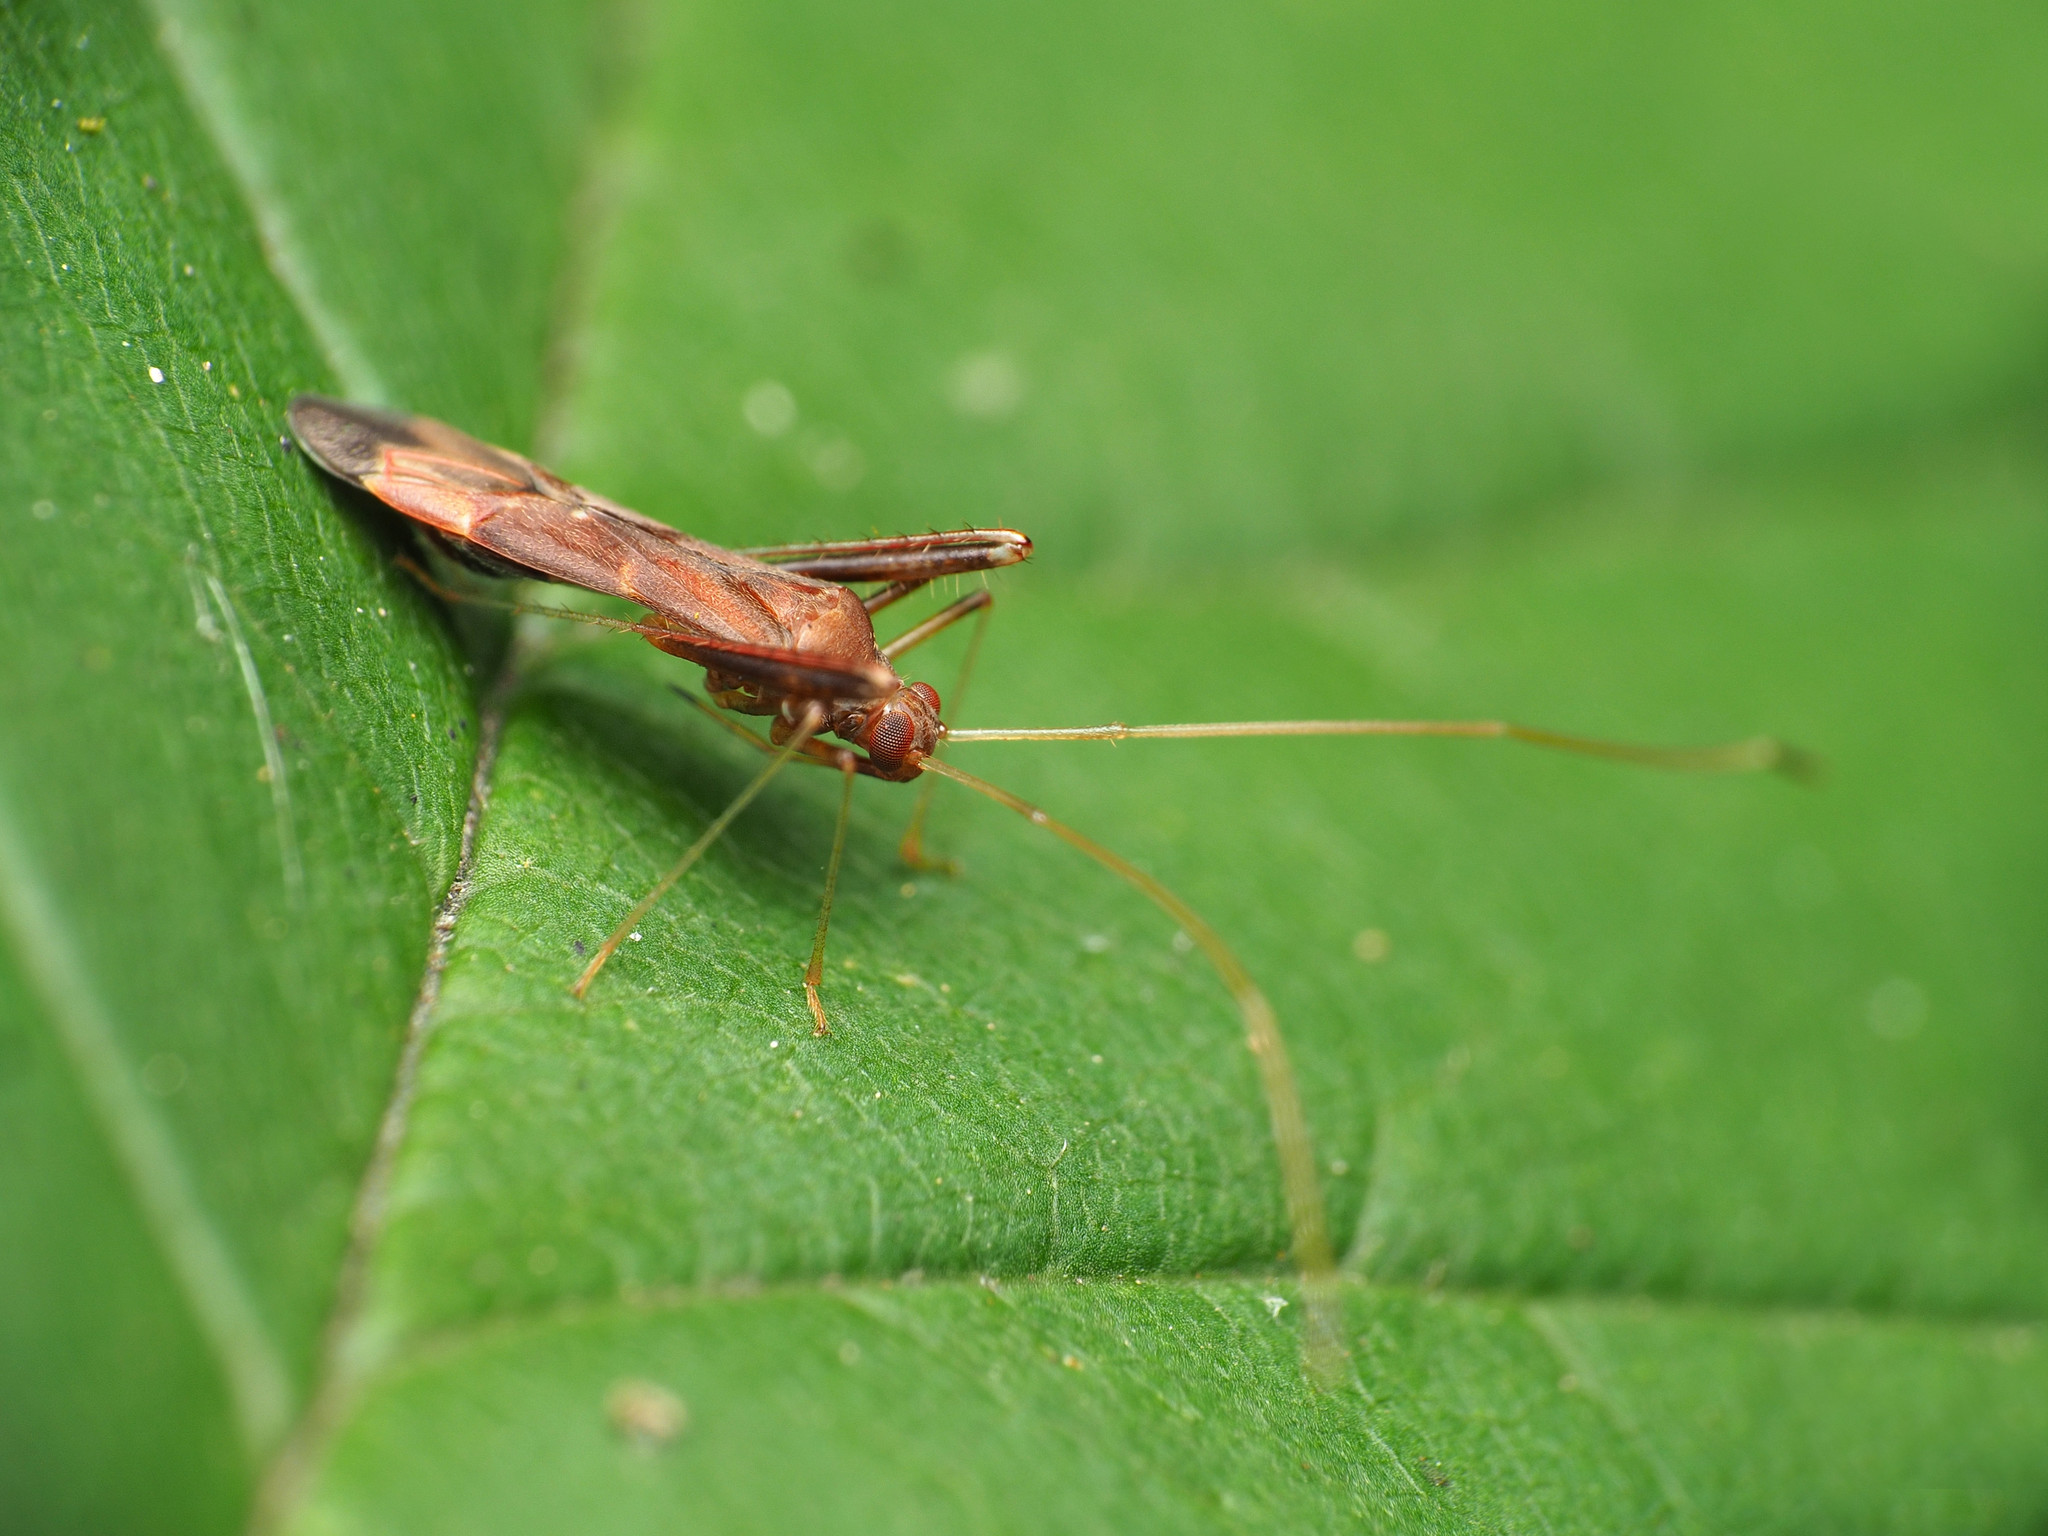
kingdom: Animalia
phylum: Arthropoda
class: Insecta
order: Hemiptera
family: Miridae
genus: Paraxenetus
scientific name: Paraxenetus guttulatus
